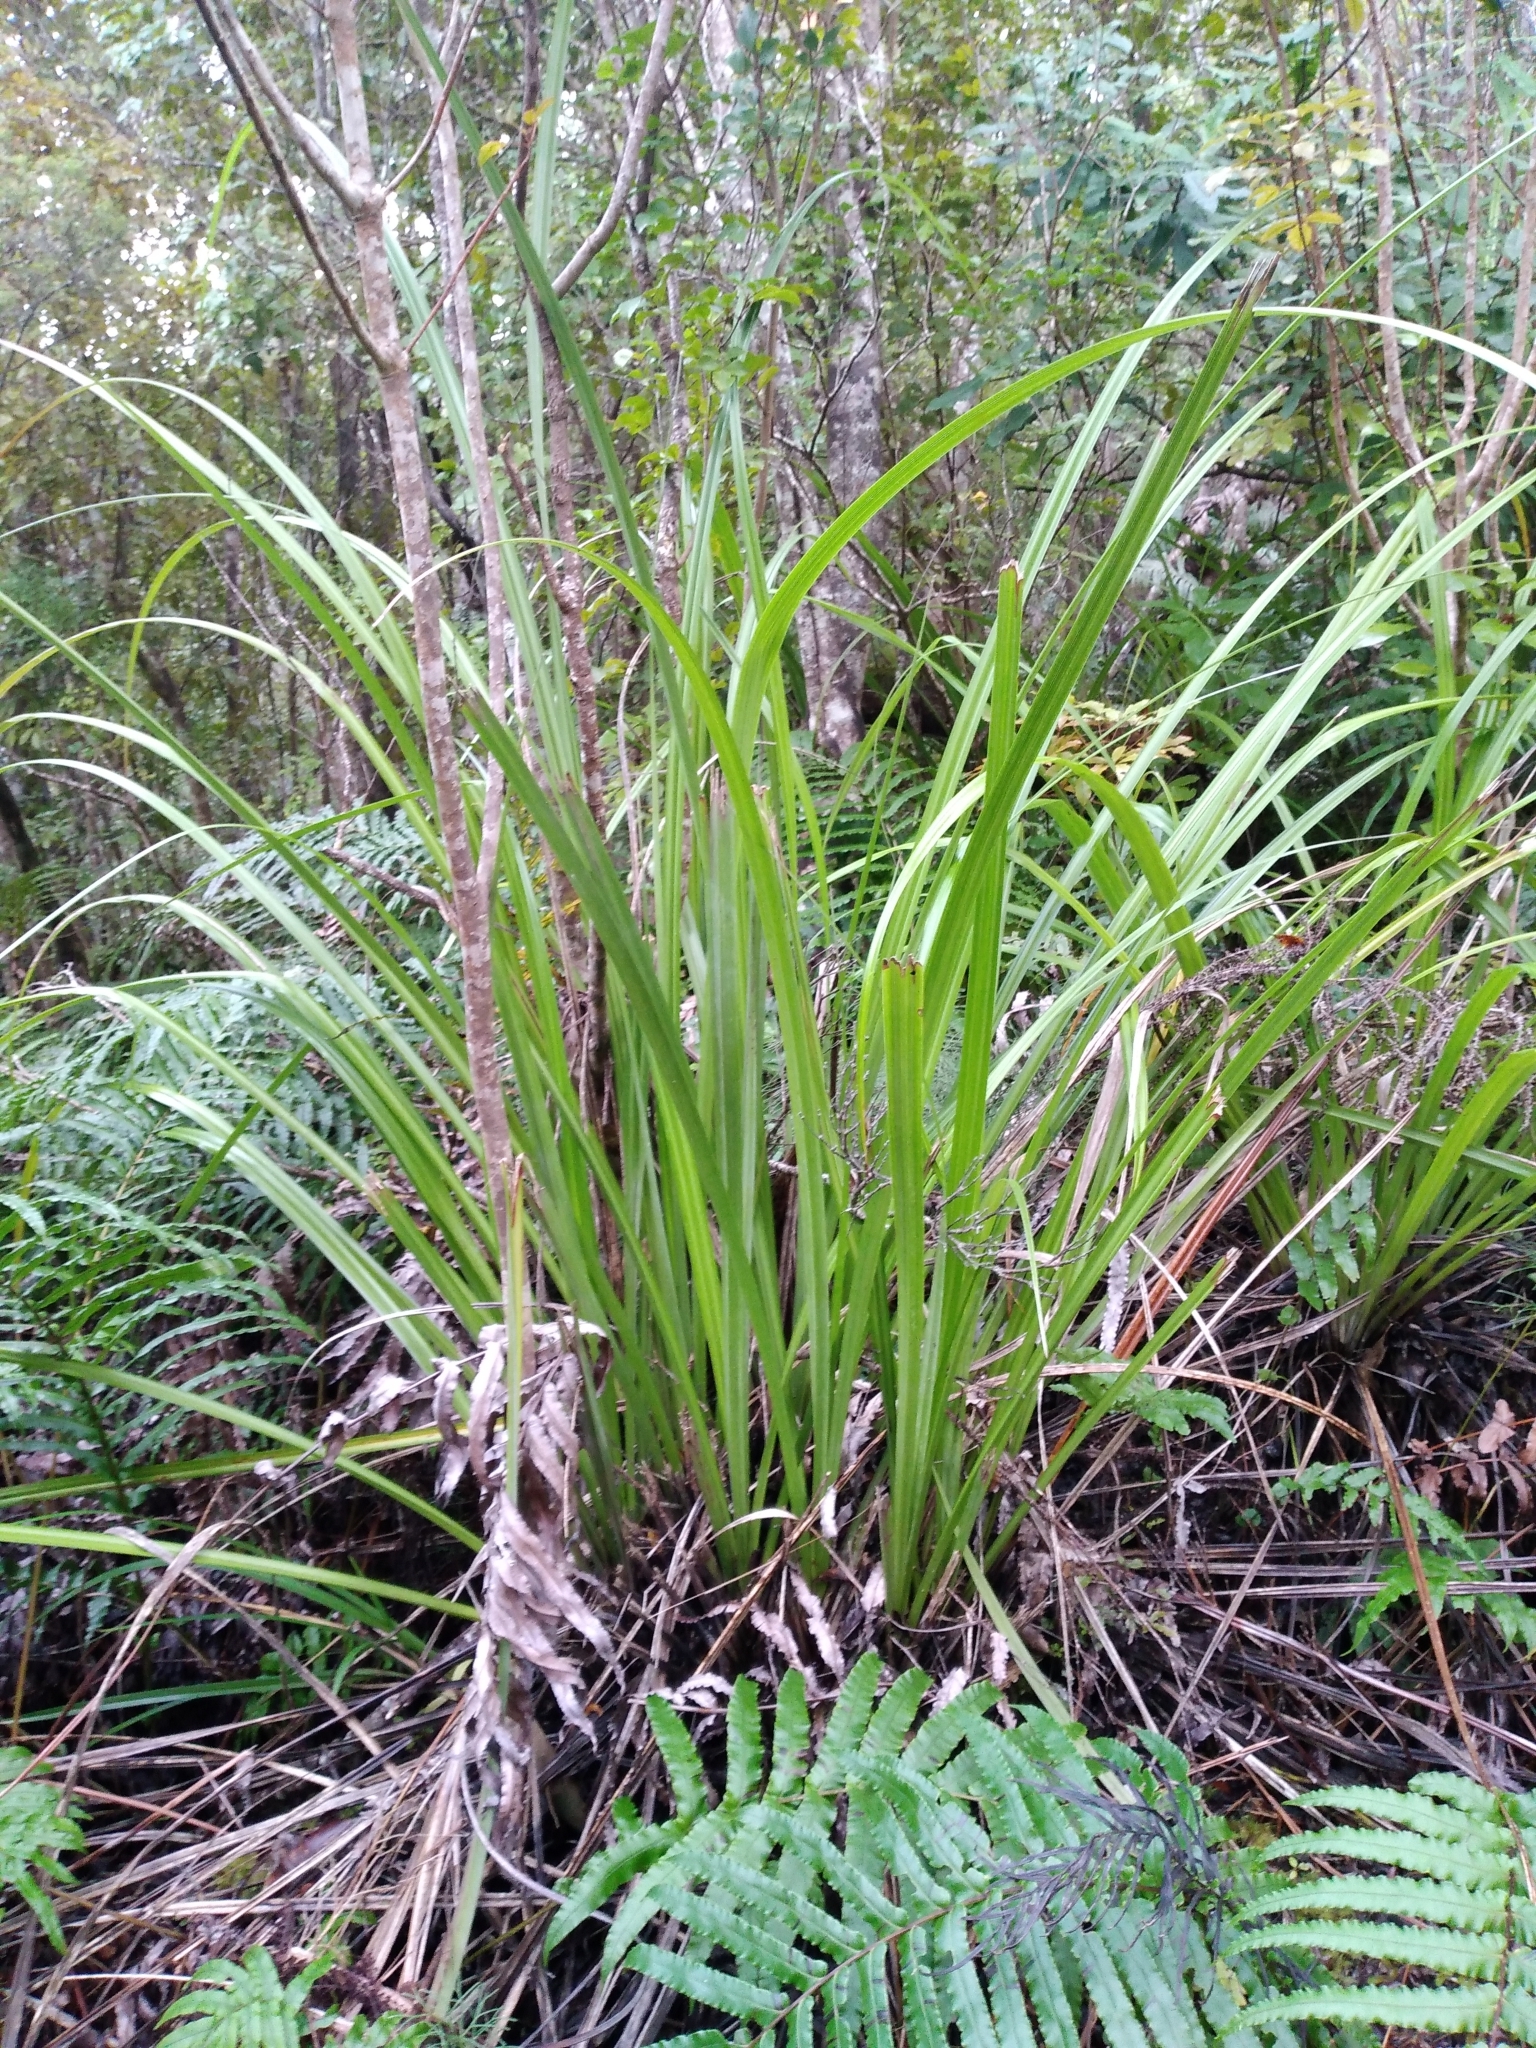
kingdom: Plantae
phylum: Tracheophyta
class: Liliopsida
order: Asparagales
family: Asteliaceae
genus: Astelia
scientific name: Astelia trinervia
